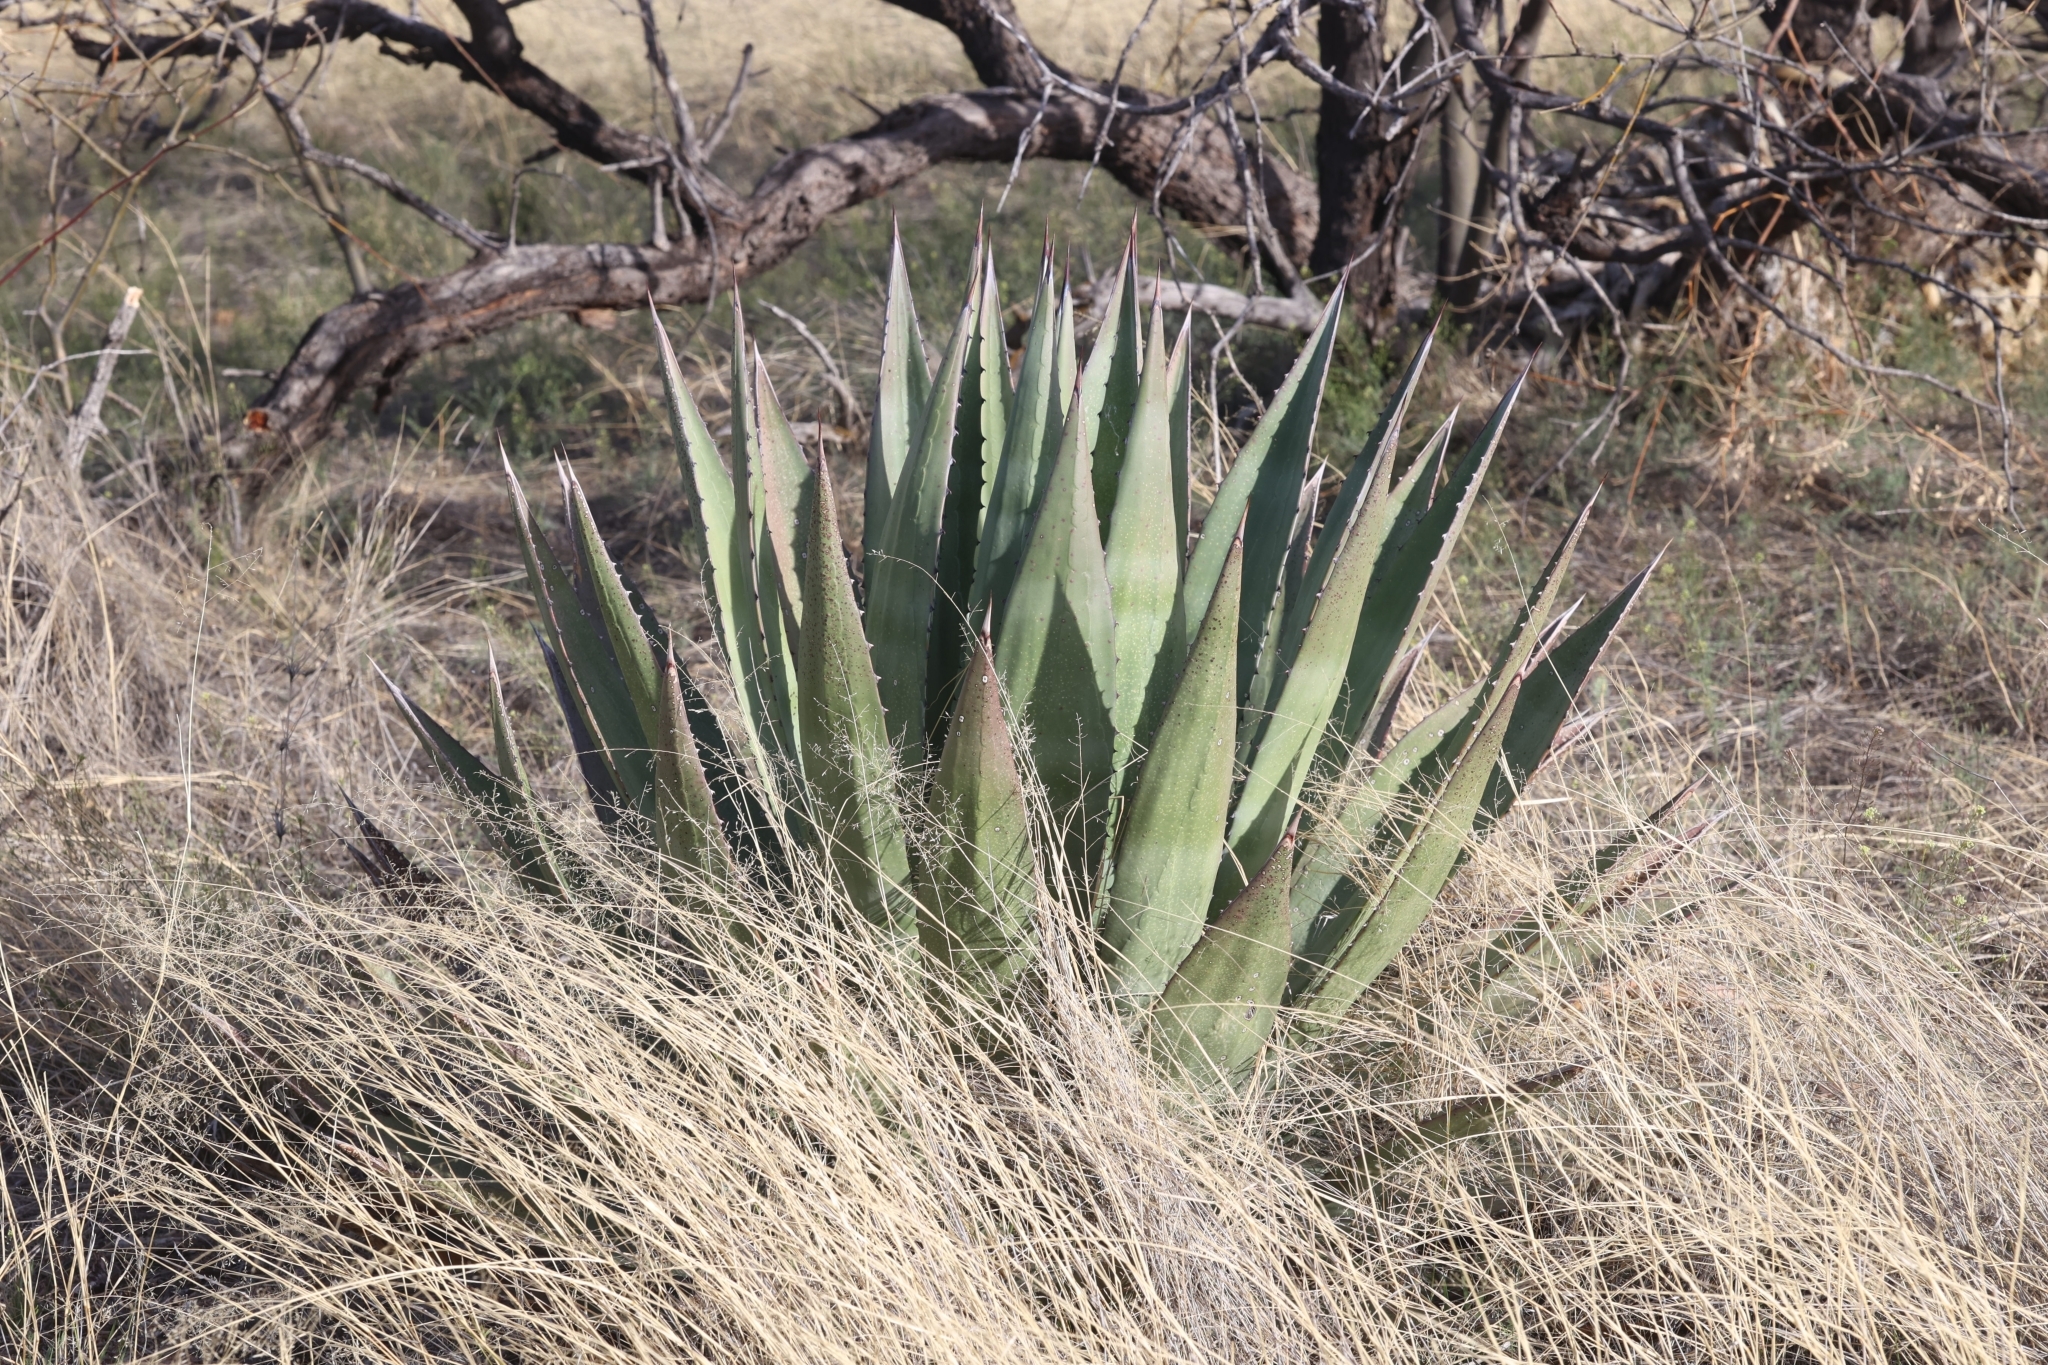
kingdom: Plantae
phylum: Tracheophyta
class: Liliopsida
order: Asparagales
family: Asparagaceae
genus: Agave
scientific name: Agave palmeri
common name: Palmer agave
